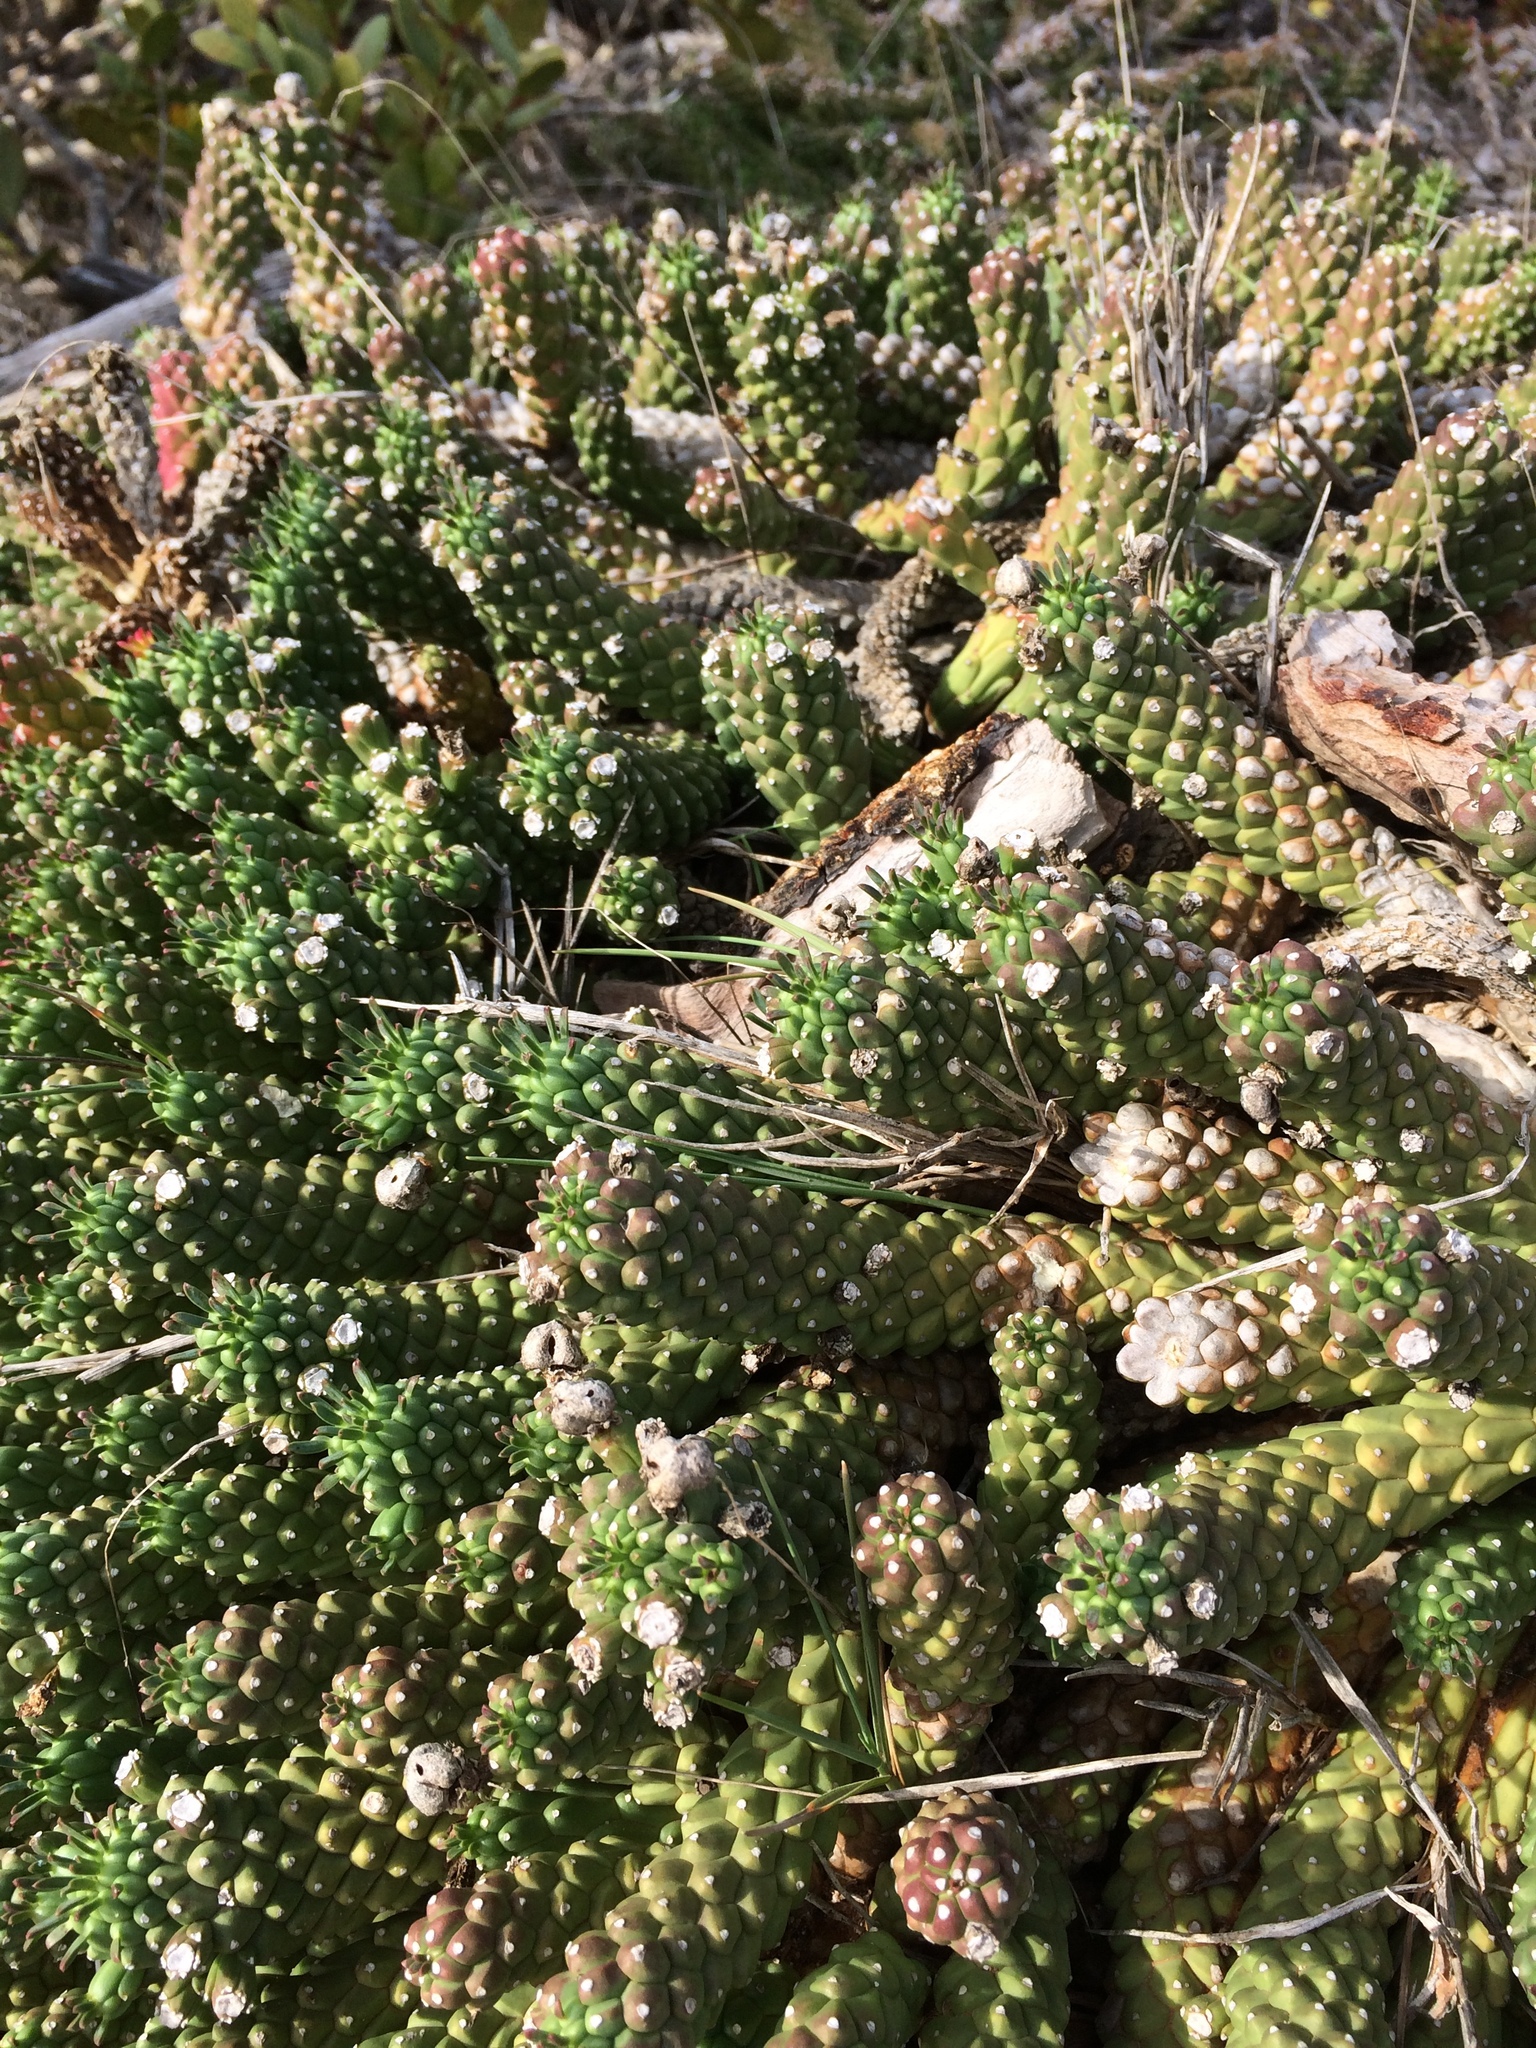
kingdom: Plantae
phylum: Tracheophyta
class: Magnoliopsida
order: Malpighiales
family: Euphorbiaceae
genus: Euphorbia
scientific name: Euphorbia caput-medusae
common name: Medusa's-head
